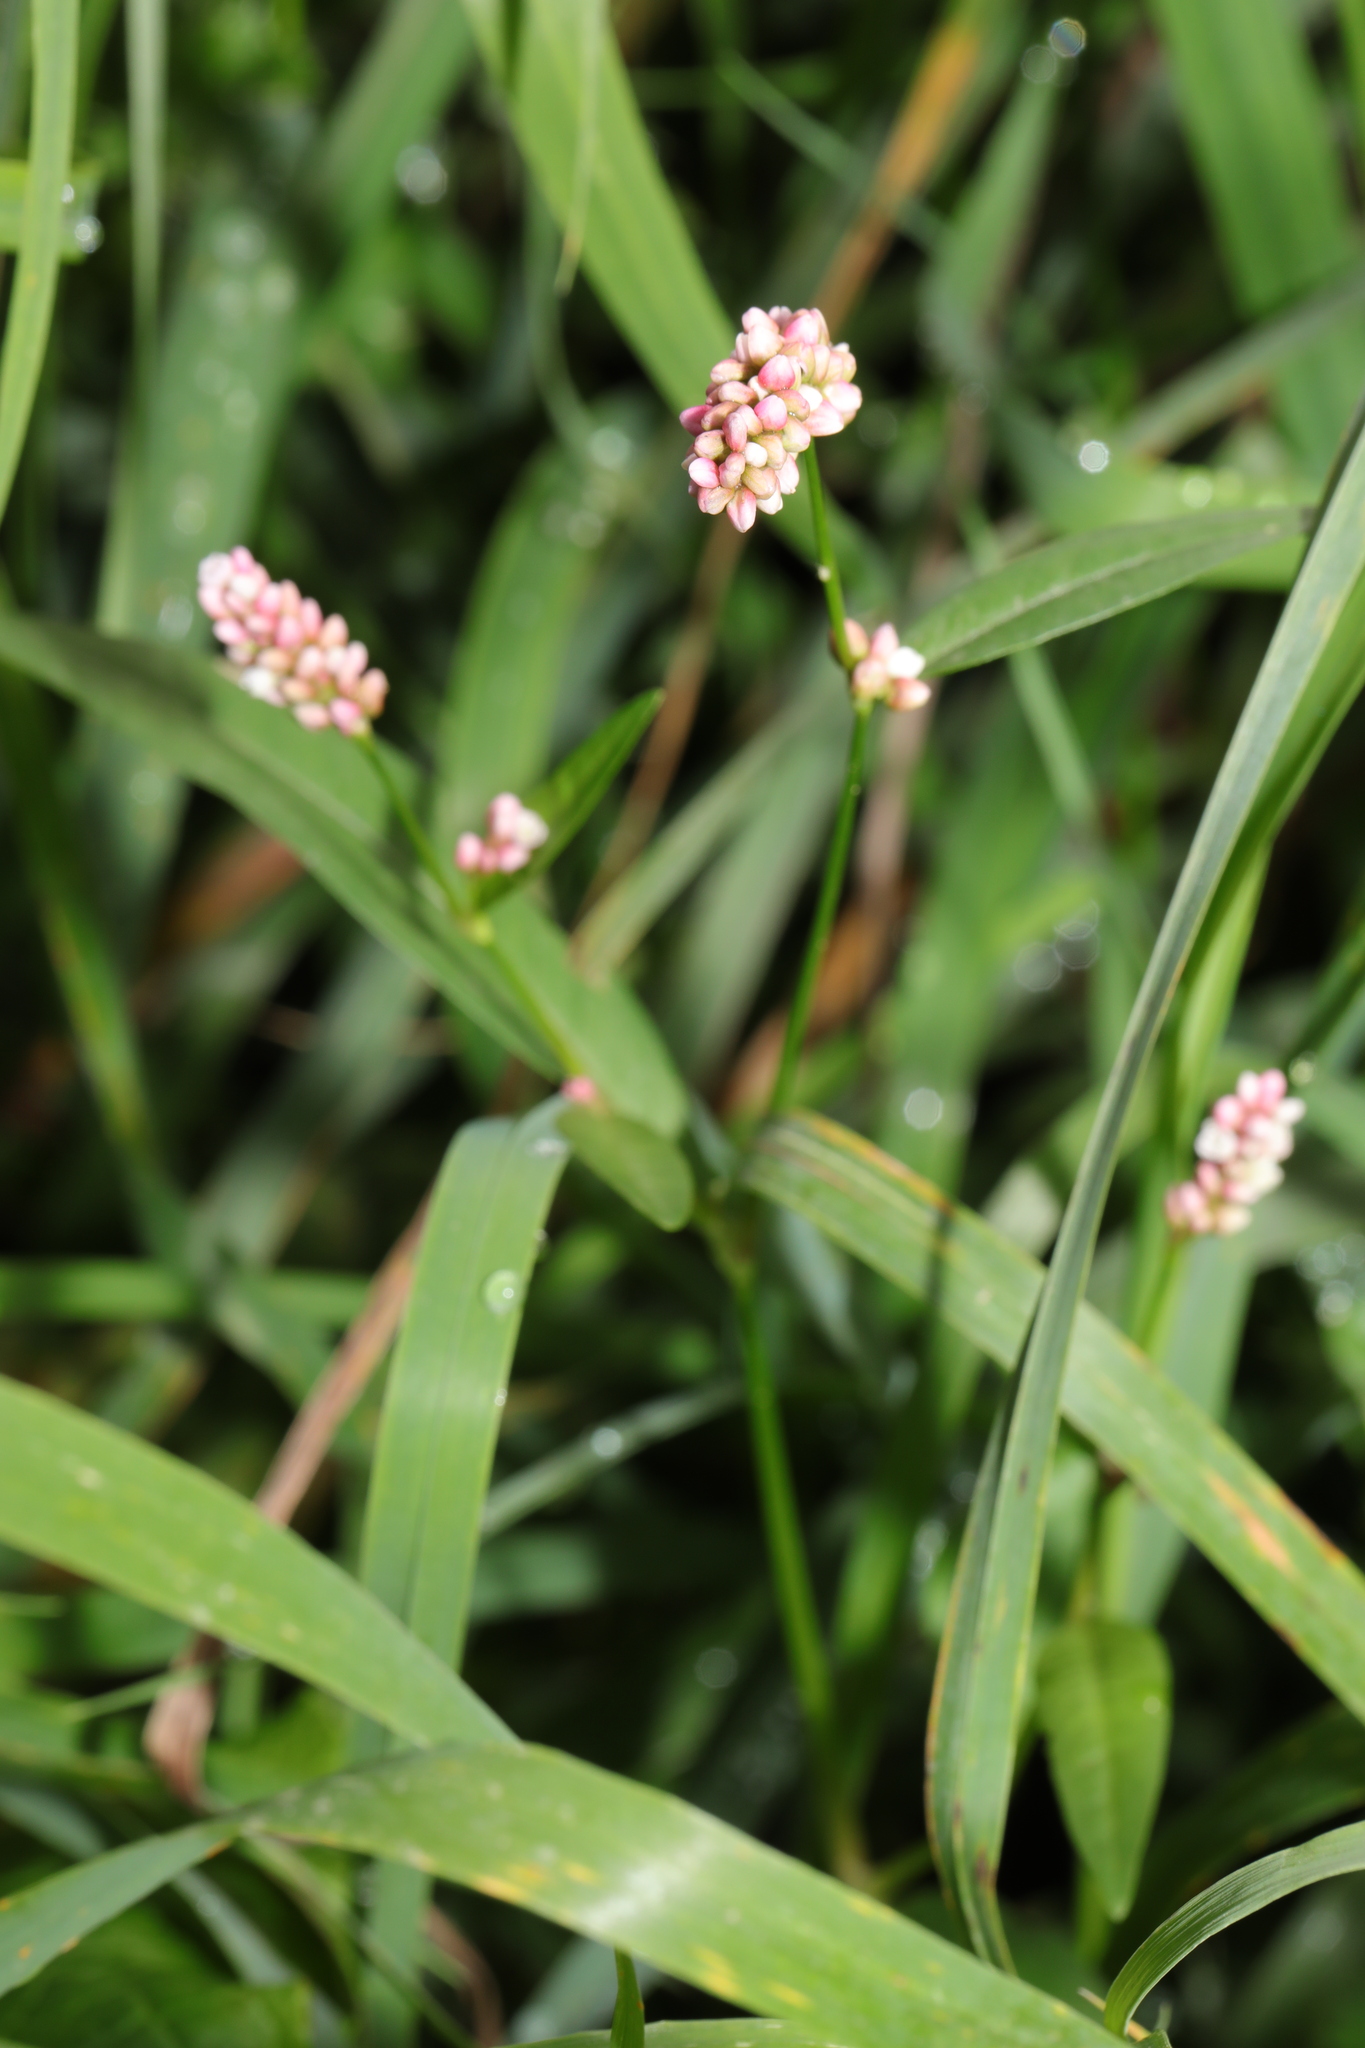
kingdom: Plantae
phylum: Tracheophyta
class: Magnoliopsida
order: Caryophyllales
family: Polygonaceae
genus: Persicaria
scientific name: Persicaria maculosa
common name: Redshank
